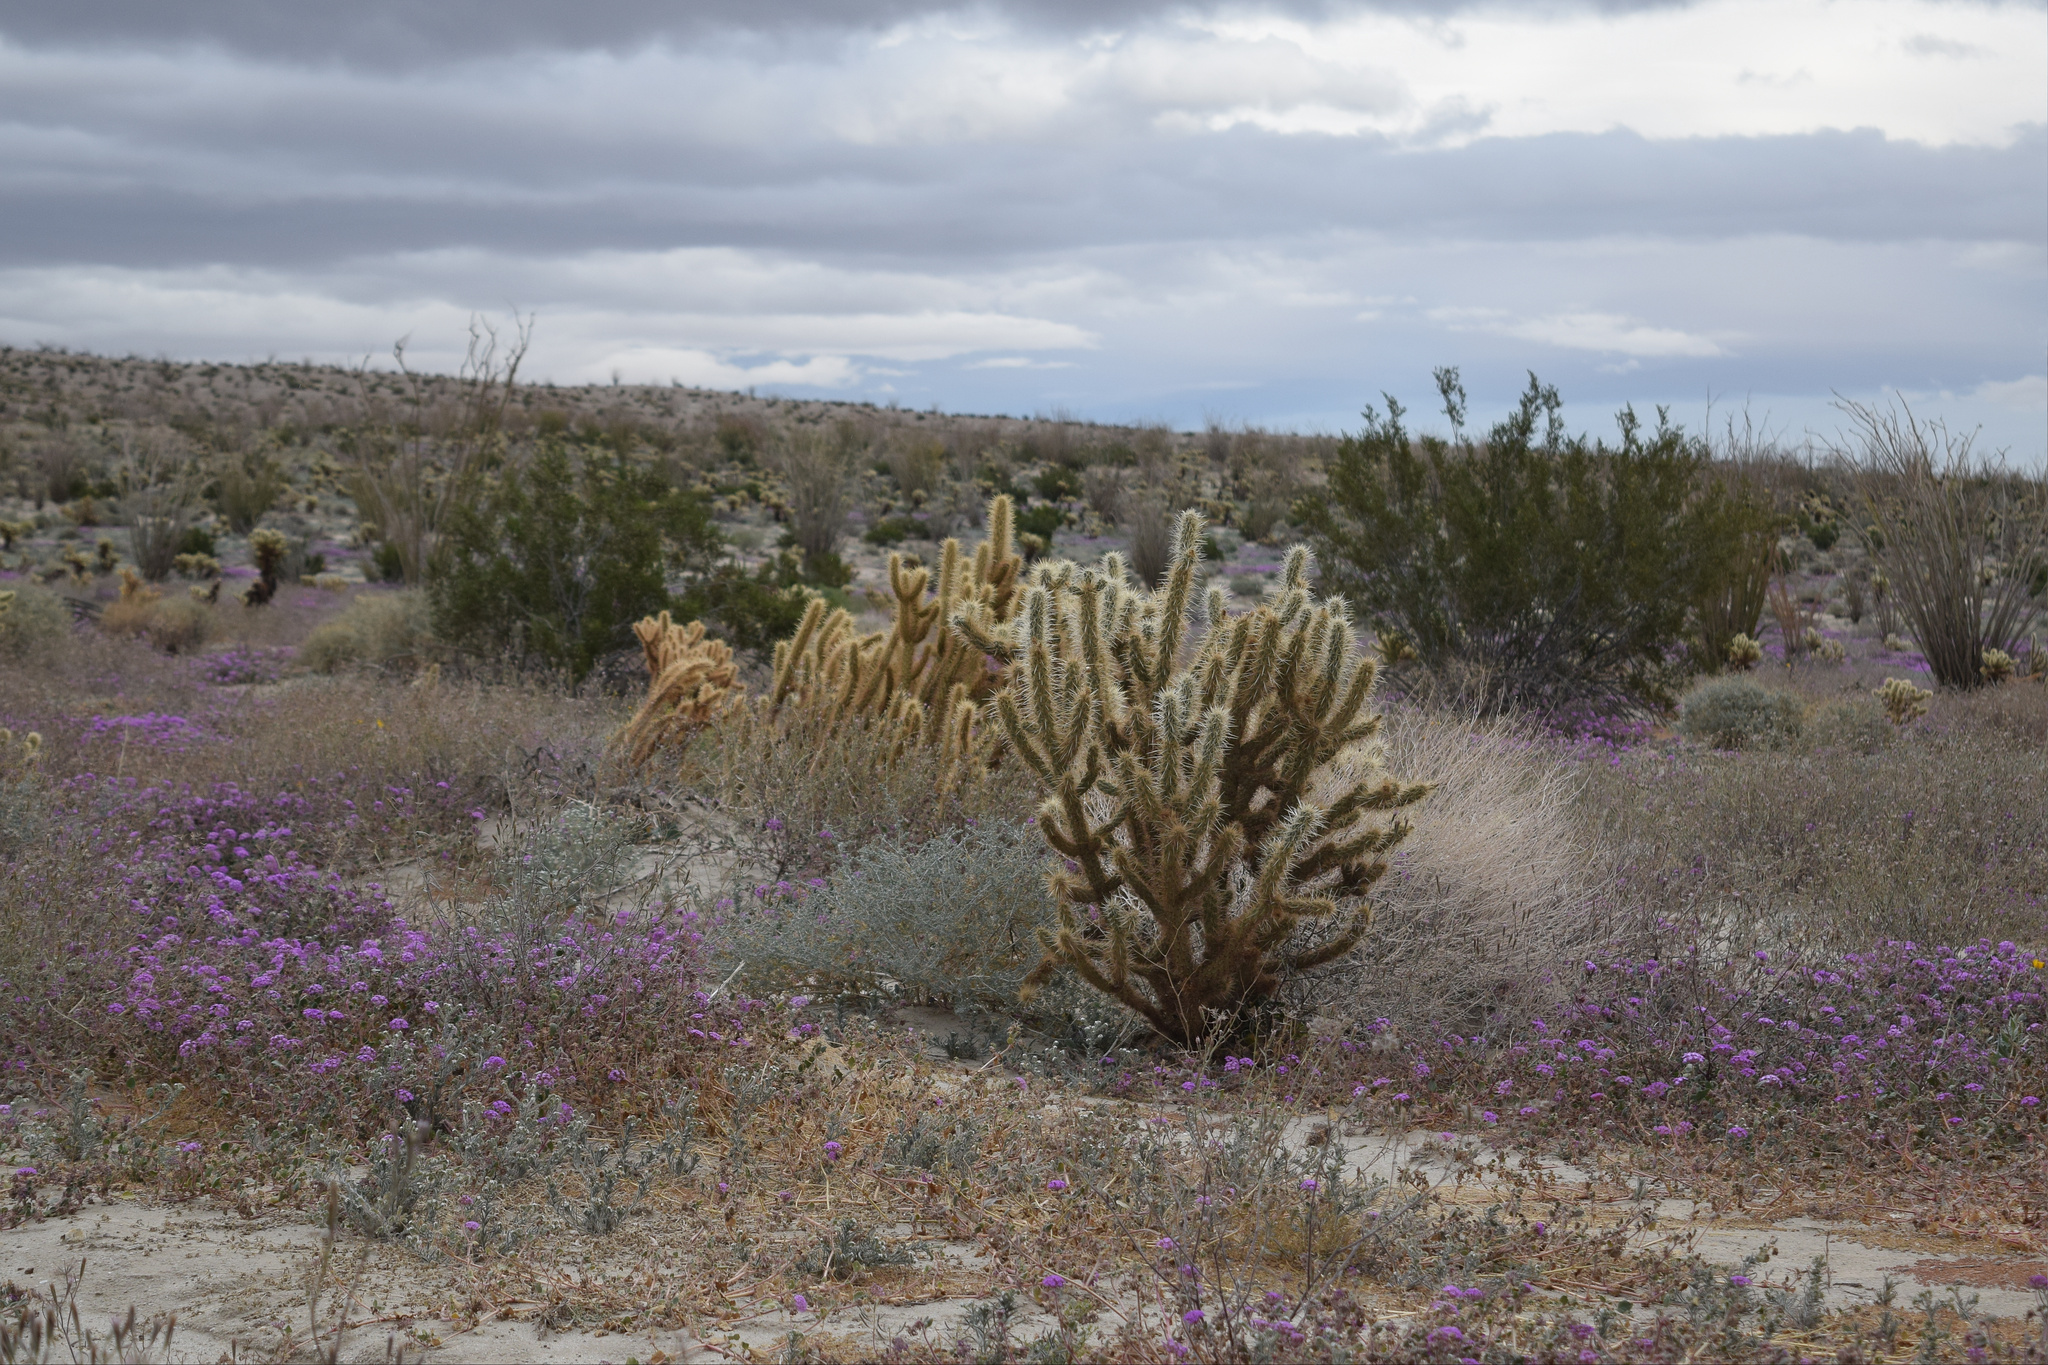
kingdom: Plantae
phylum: Tracheophyta
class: Magnoliopsida
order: Caryophyllales
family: Cactaceae
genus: Cylindropuntia
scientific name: Cylindropuntia ganderi
